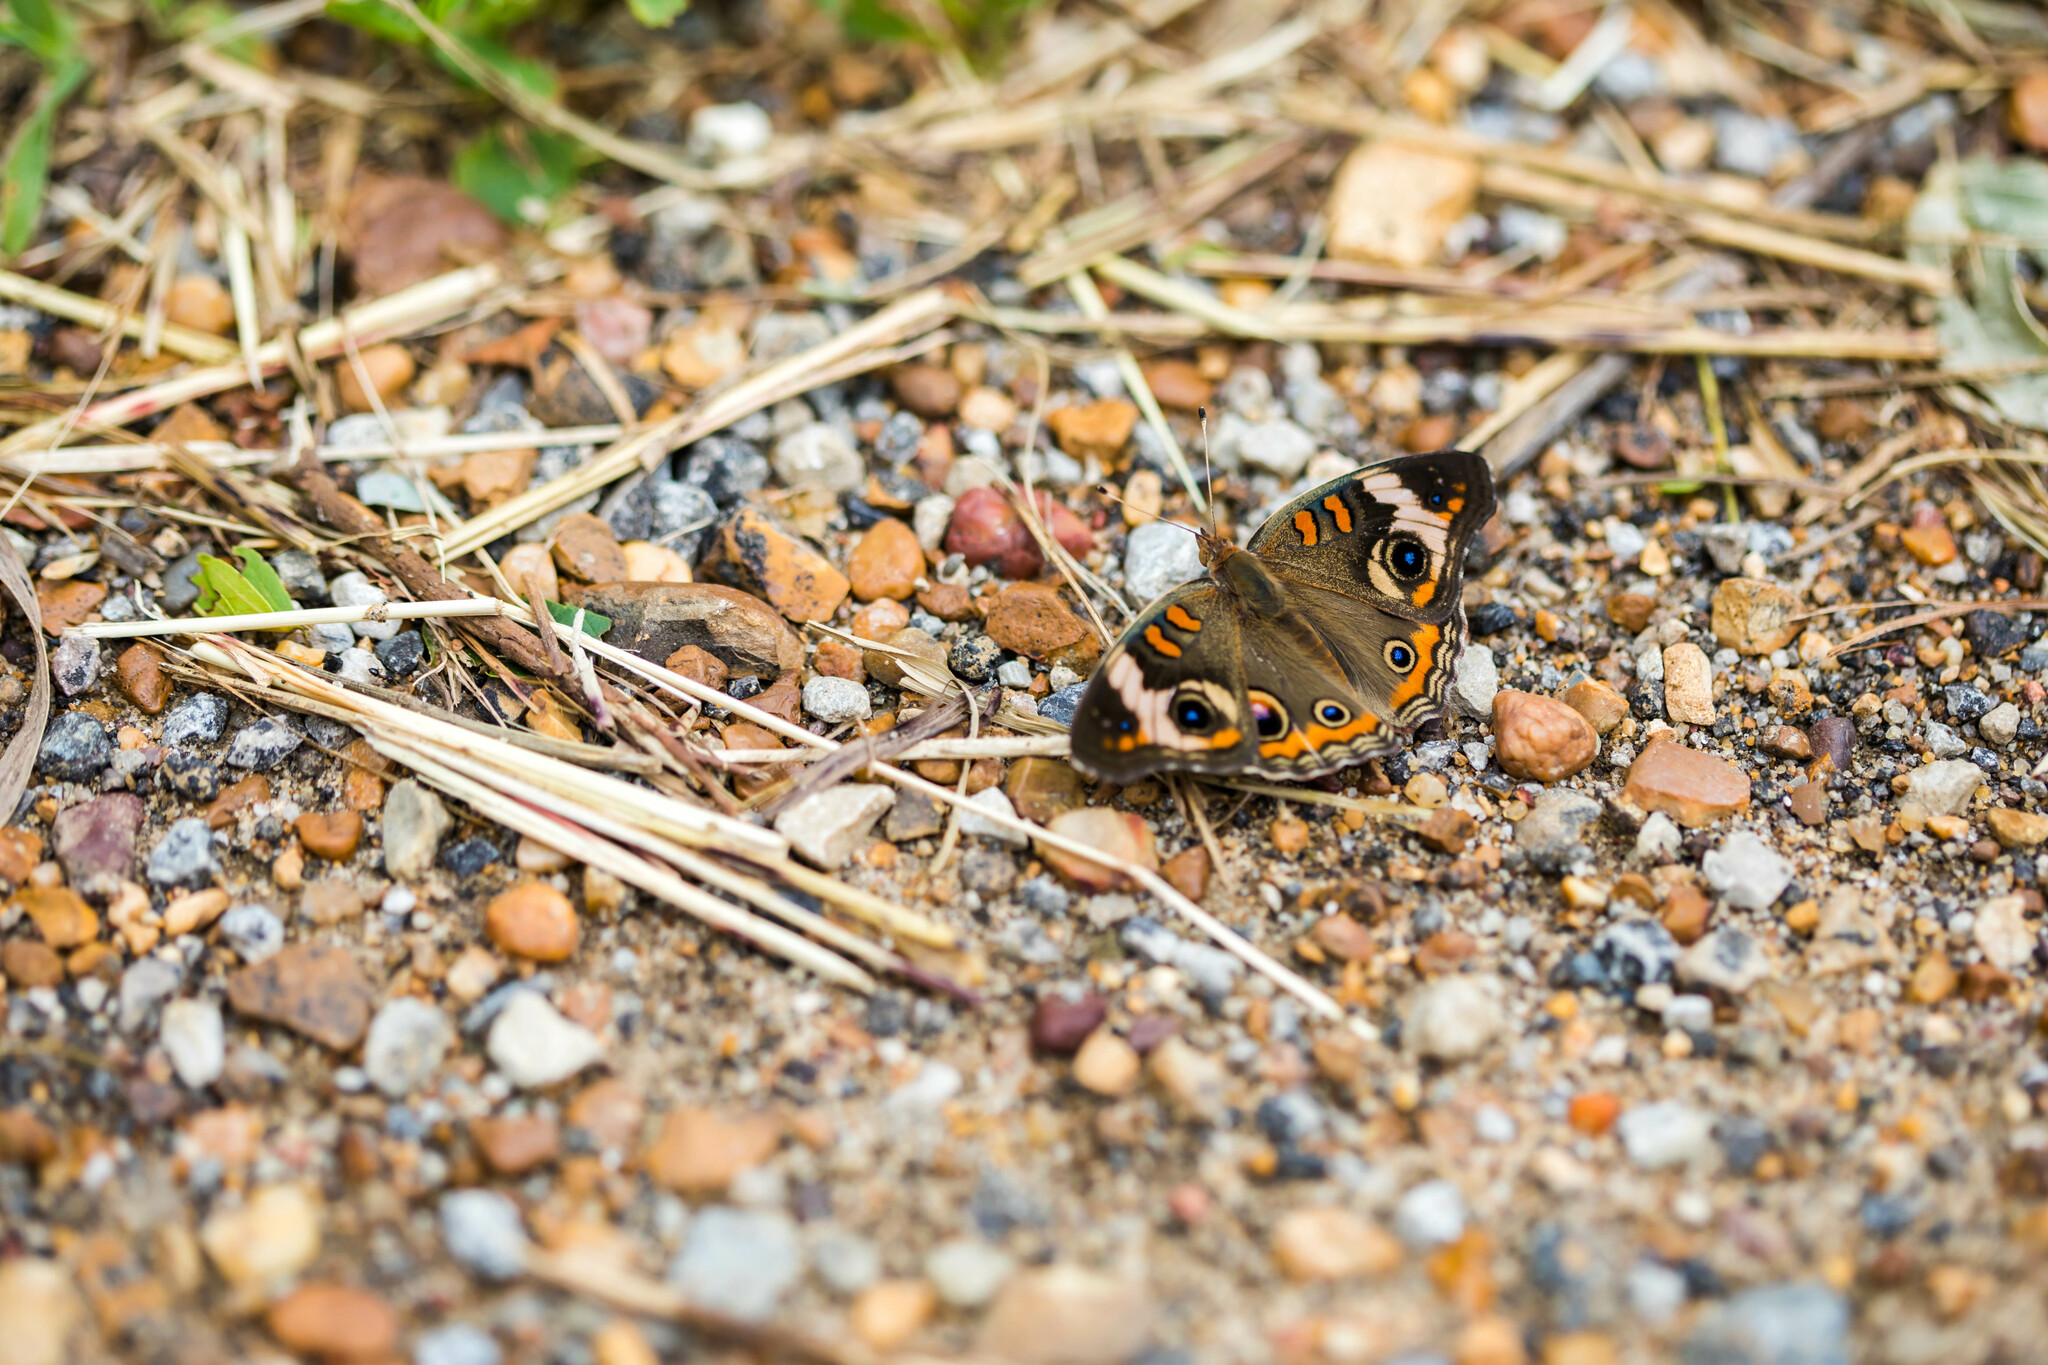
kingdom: Animalia
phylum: Arthropoda
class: Insecta
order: Lepidoptera
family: Nymphalidae
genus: Junonia
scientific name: Junonia coenia
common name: Common buckeye
